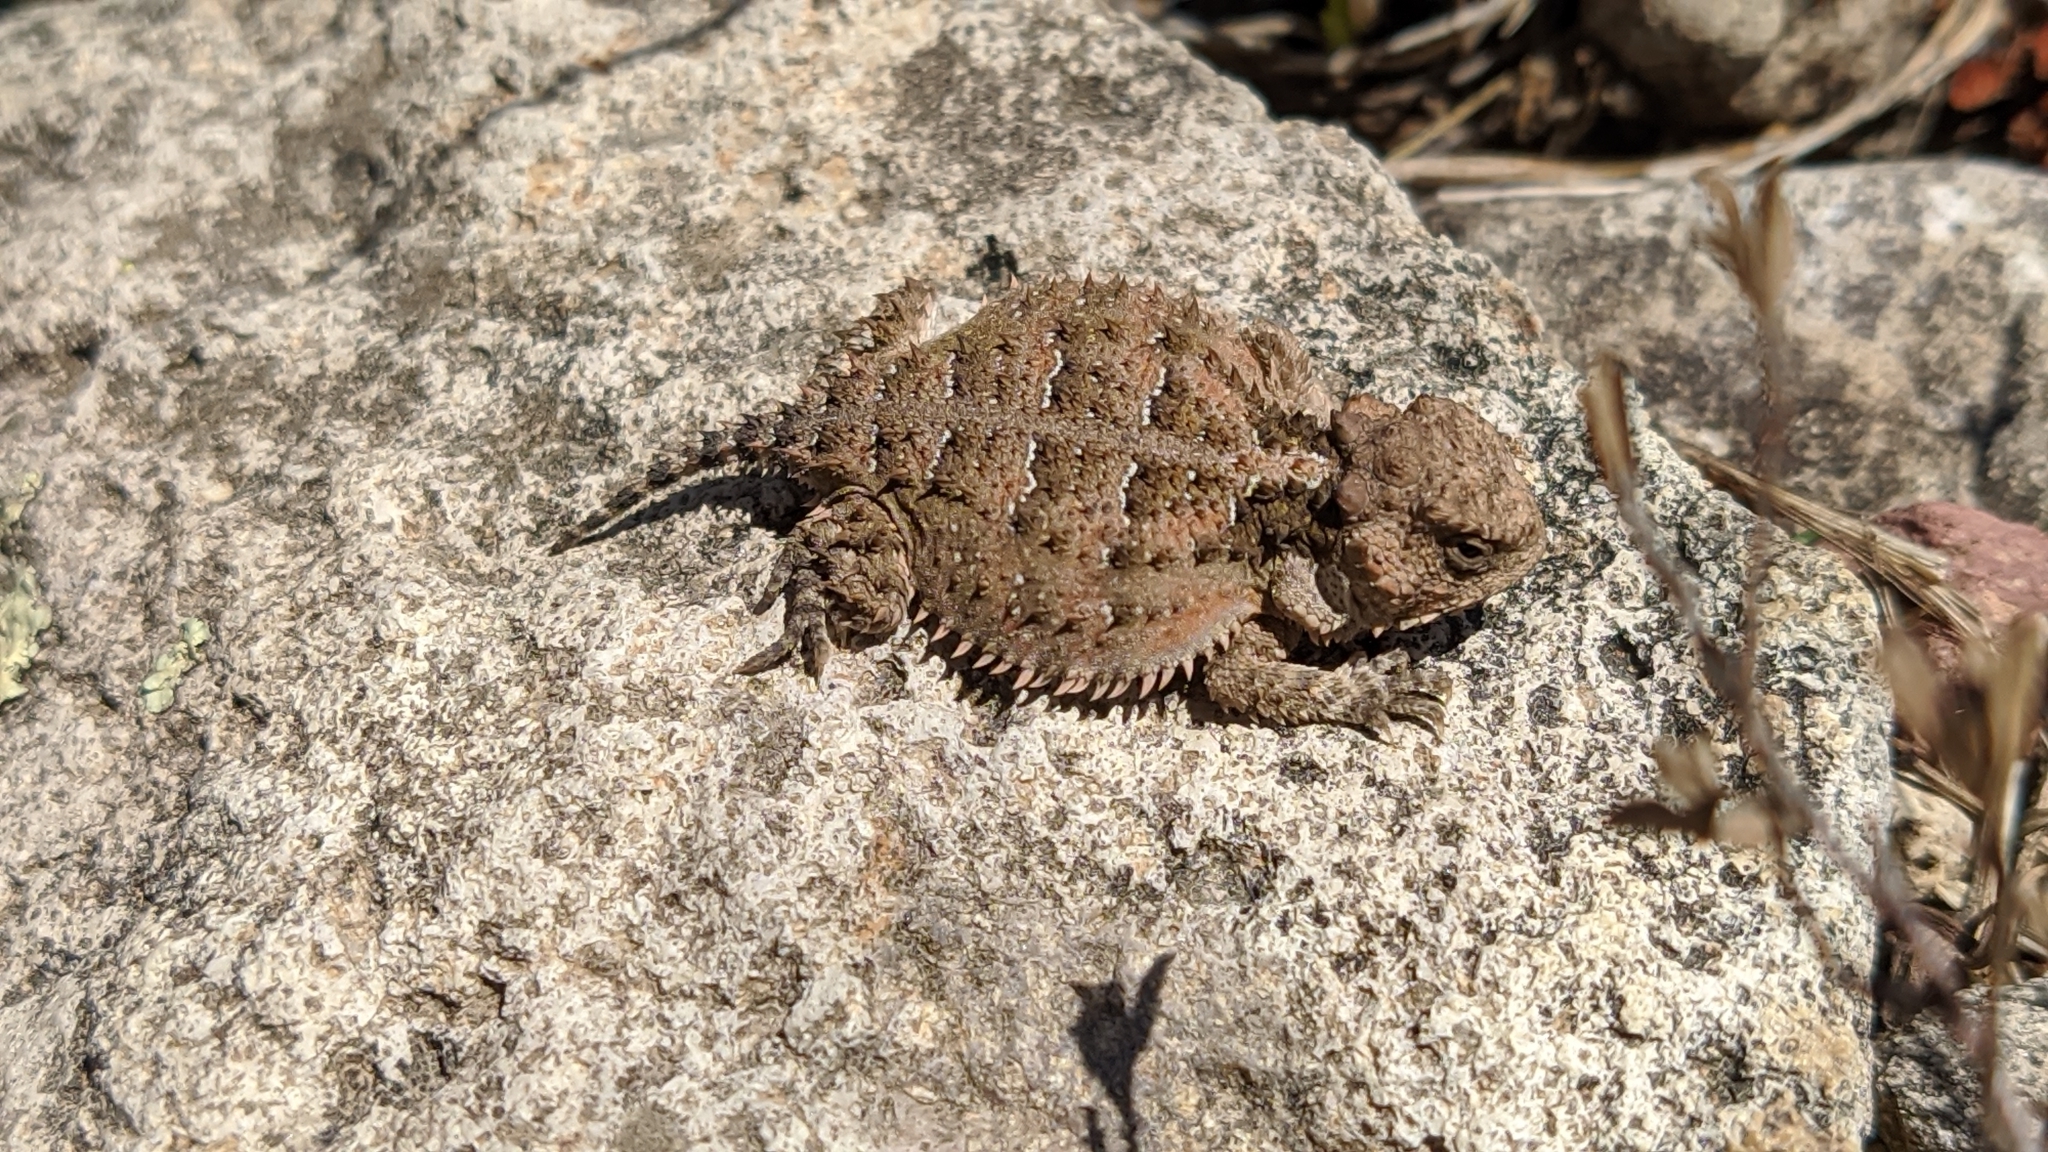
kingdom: Animalia
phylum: Chordata
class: Squamata
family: Phrynosomatidae
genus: Phrynosoma
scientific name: Phrynosoma orbiculare
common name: Mountain horned lizard
